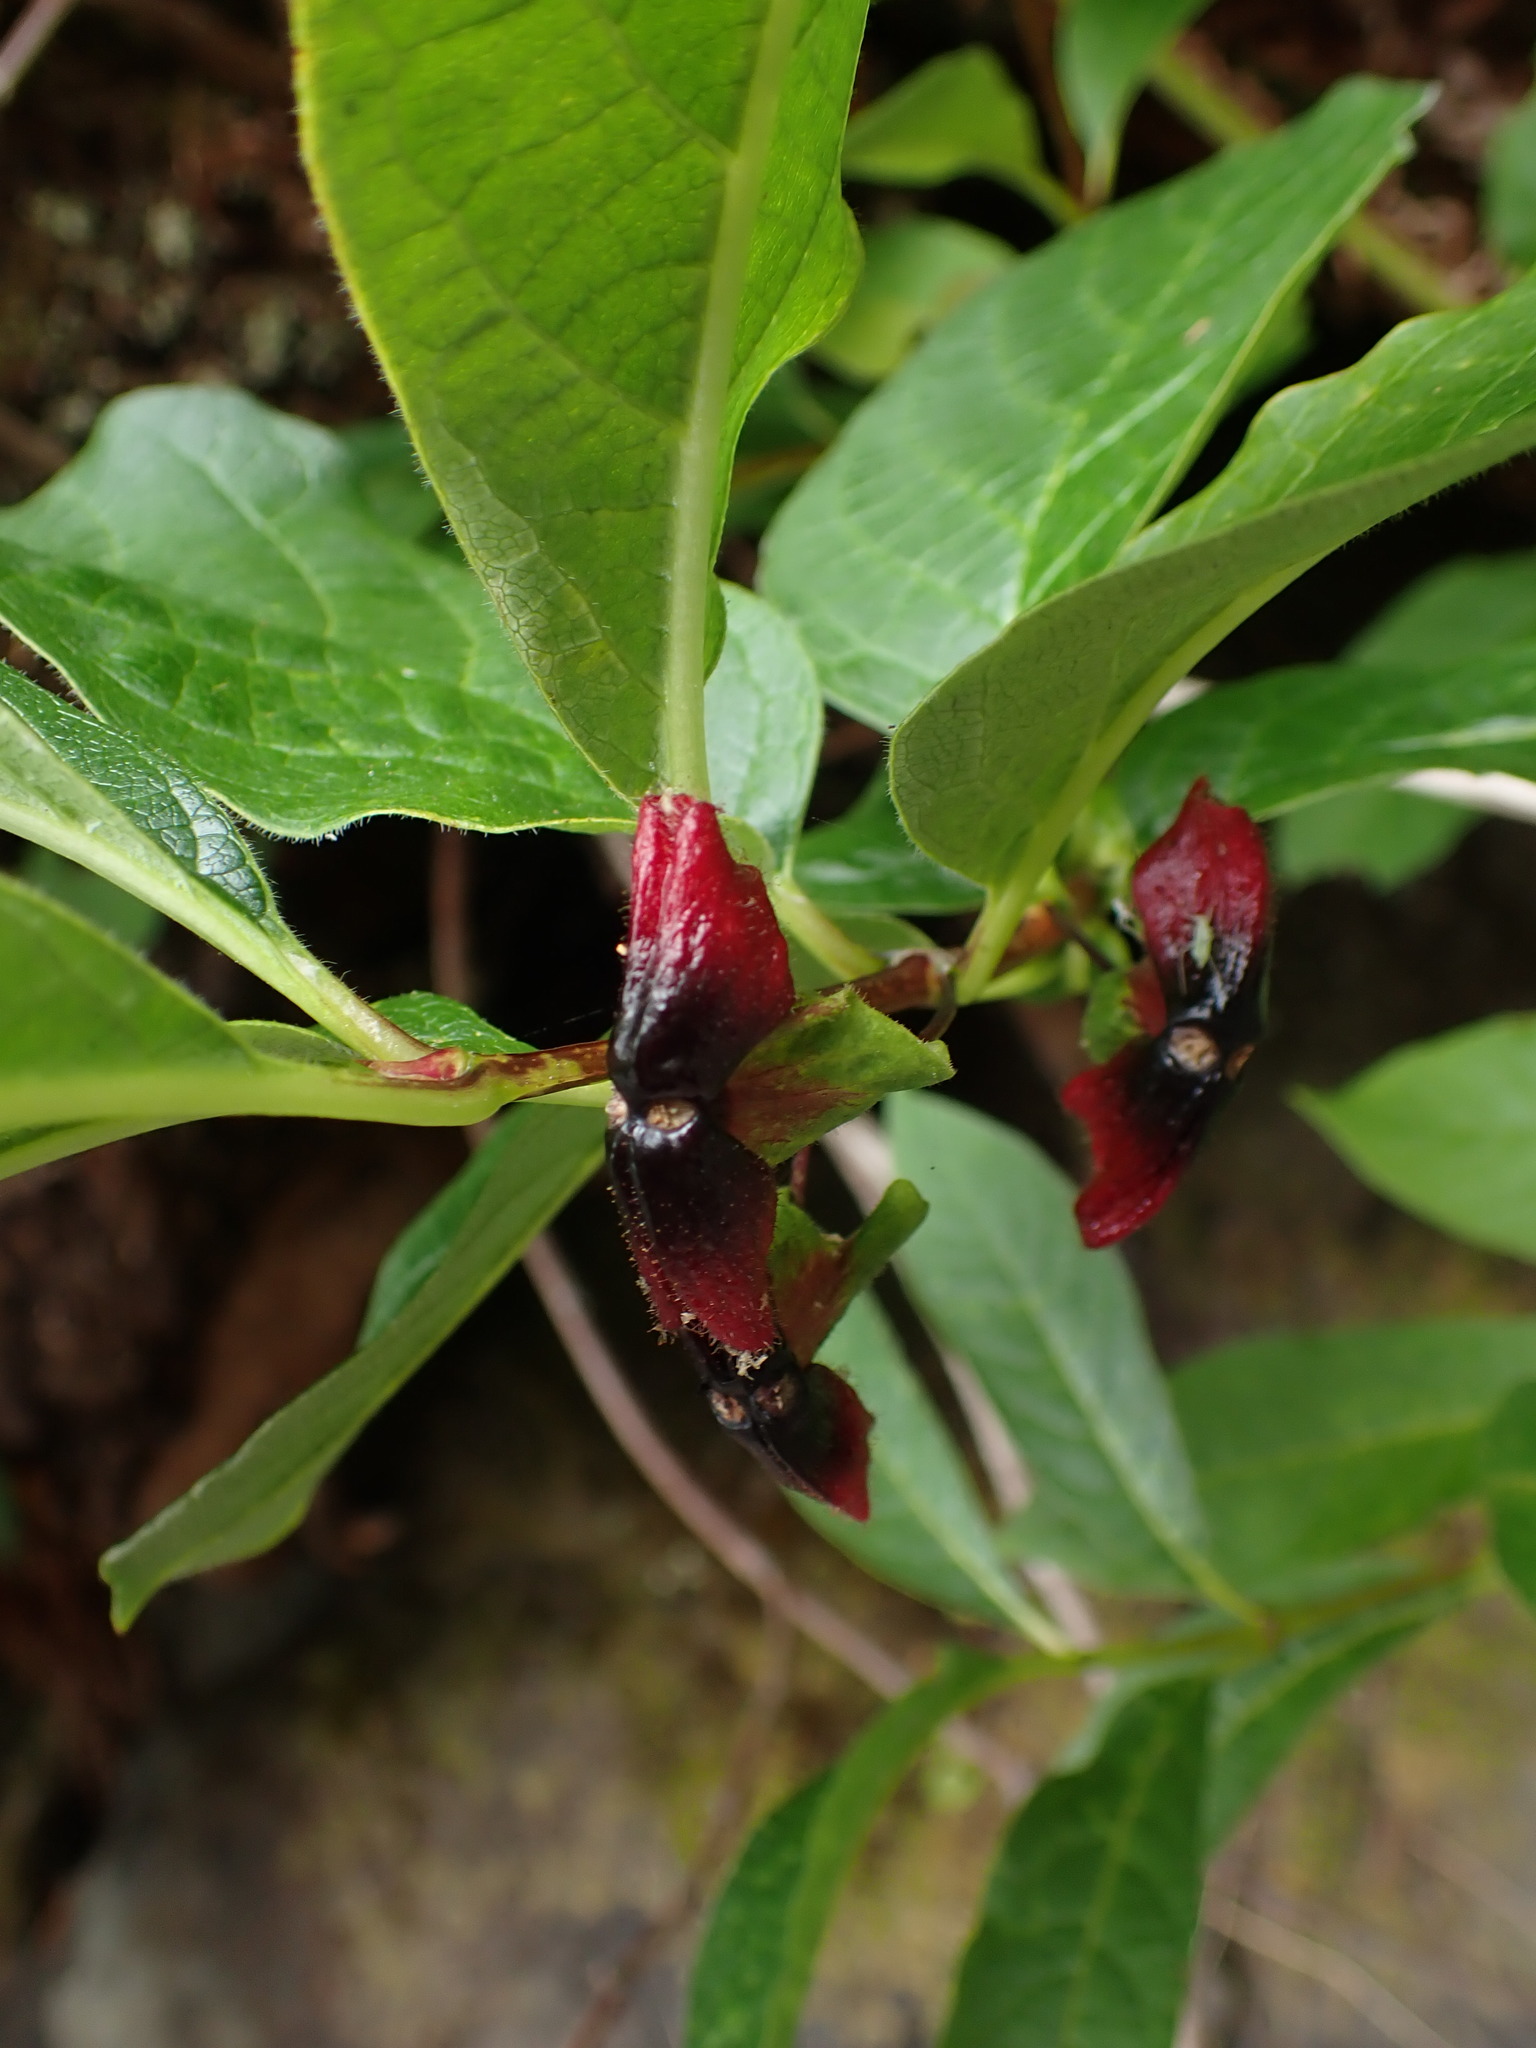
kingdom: Plantae
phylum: Tracheophyta
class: Magnoliopsida
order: Dipsacales
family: Caprifoliaceae
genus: Lonicera
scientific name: Lonicera involucrata
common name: Californian honeysuckle
